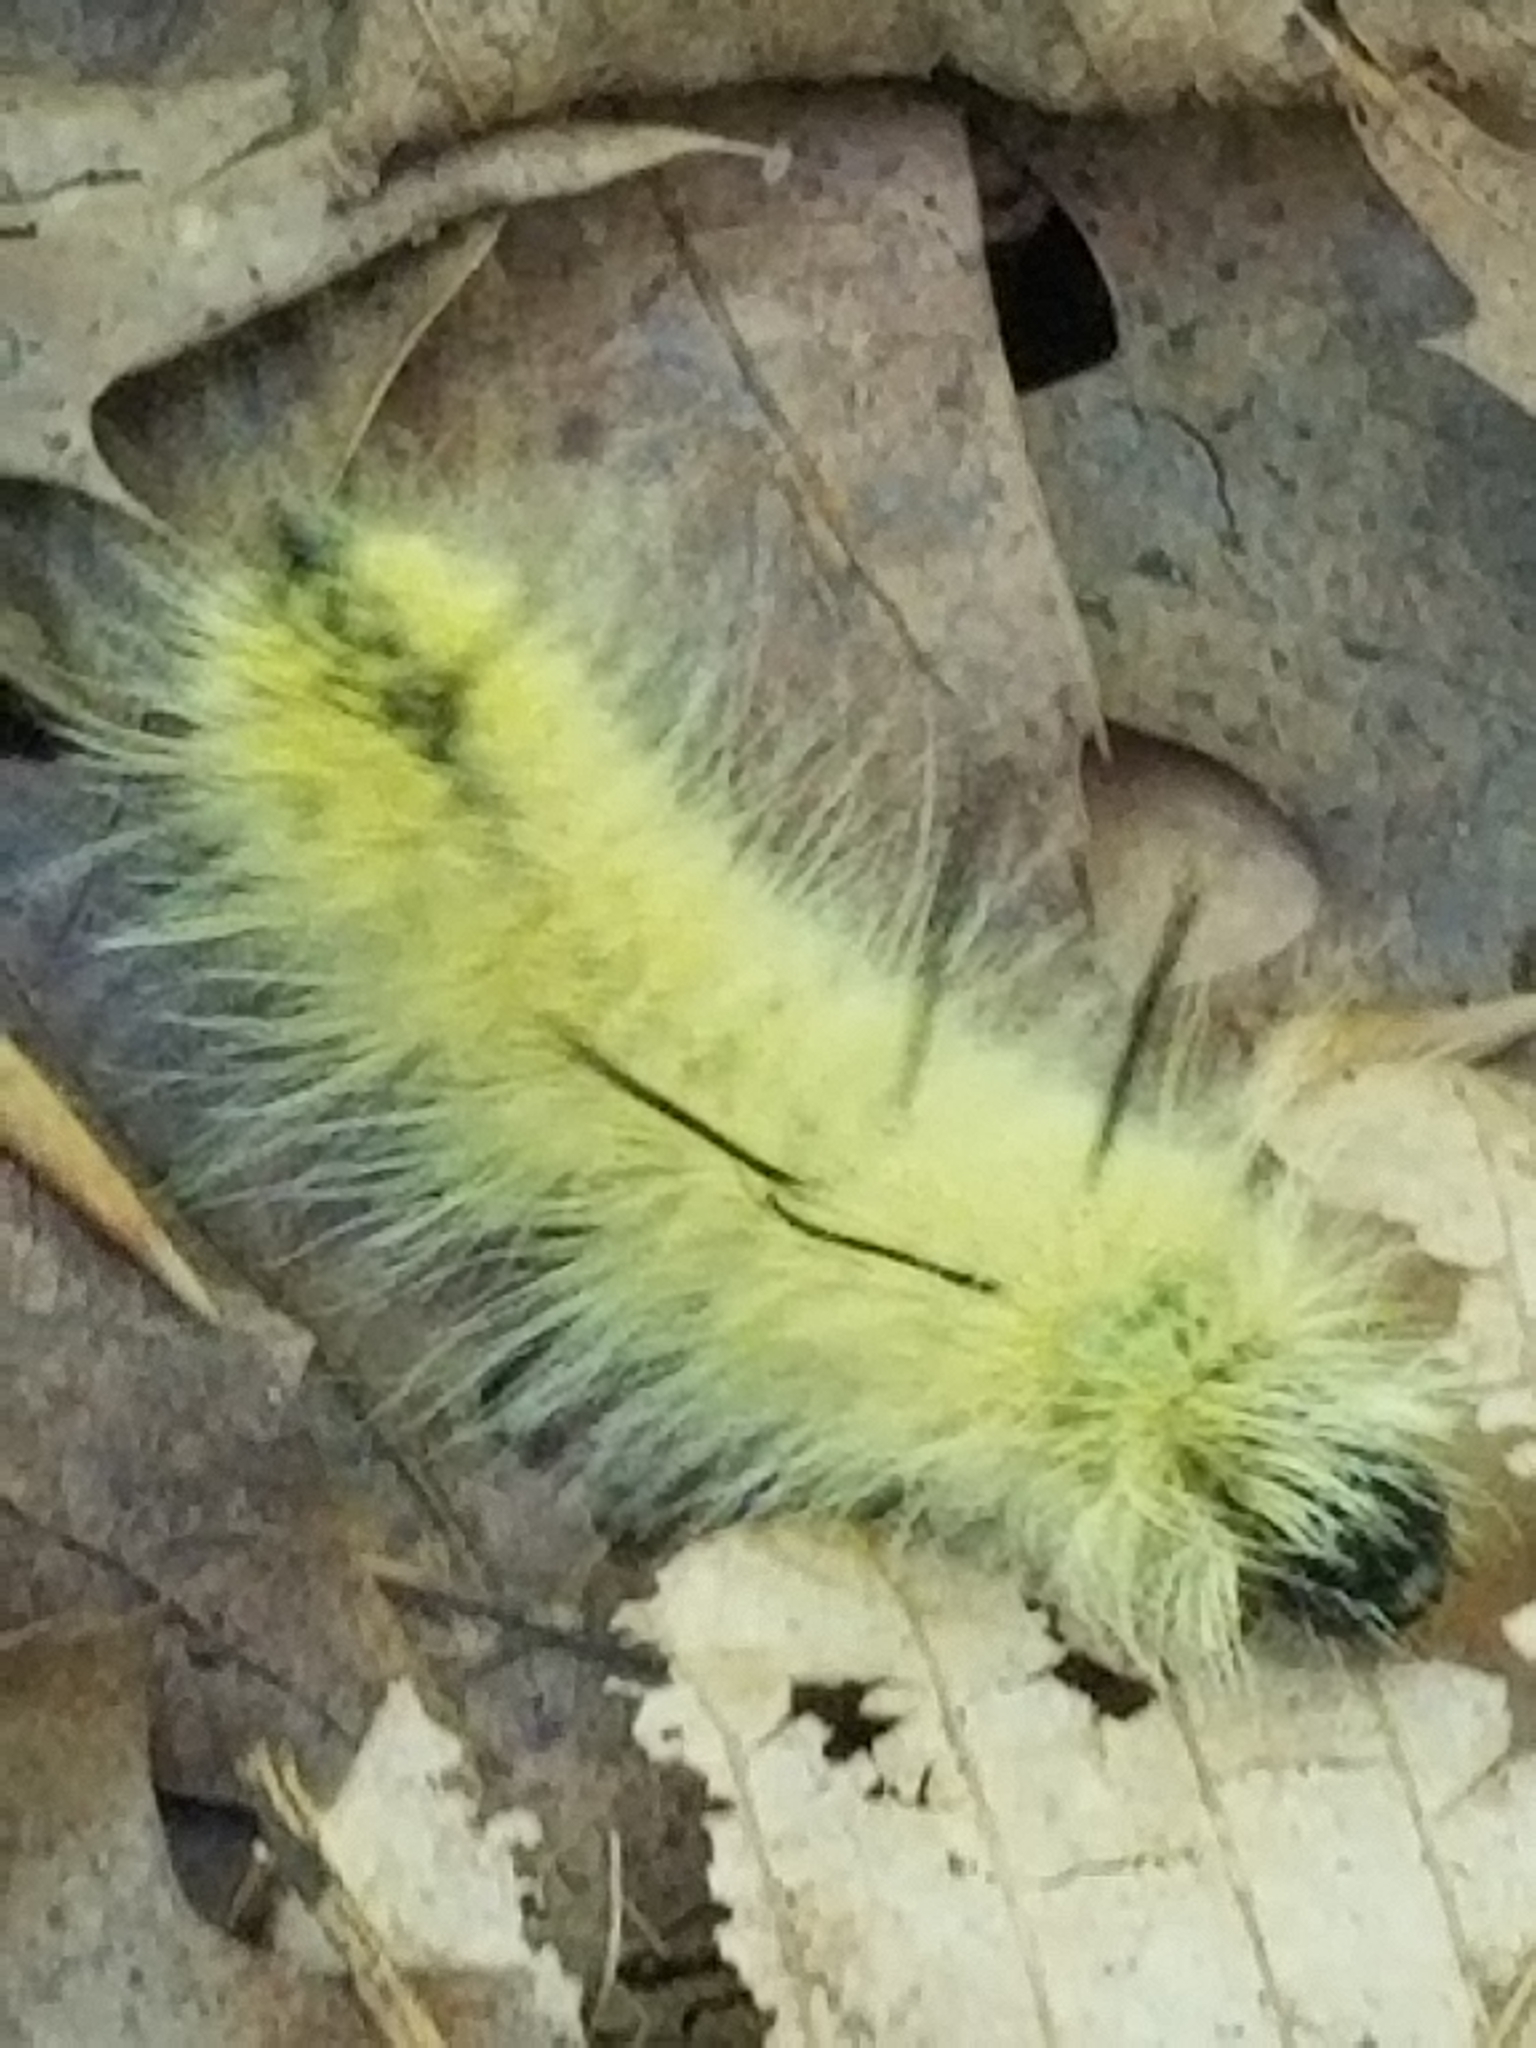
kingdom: Animalia
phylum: Arthropoda
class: Insecta
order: Lepidoptera
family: Noctuidae
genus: Acronicta
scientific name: Acronicta americana
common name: American dagger
